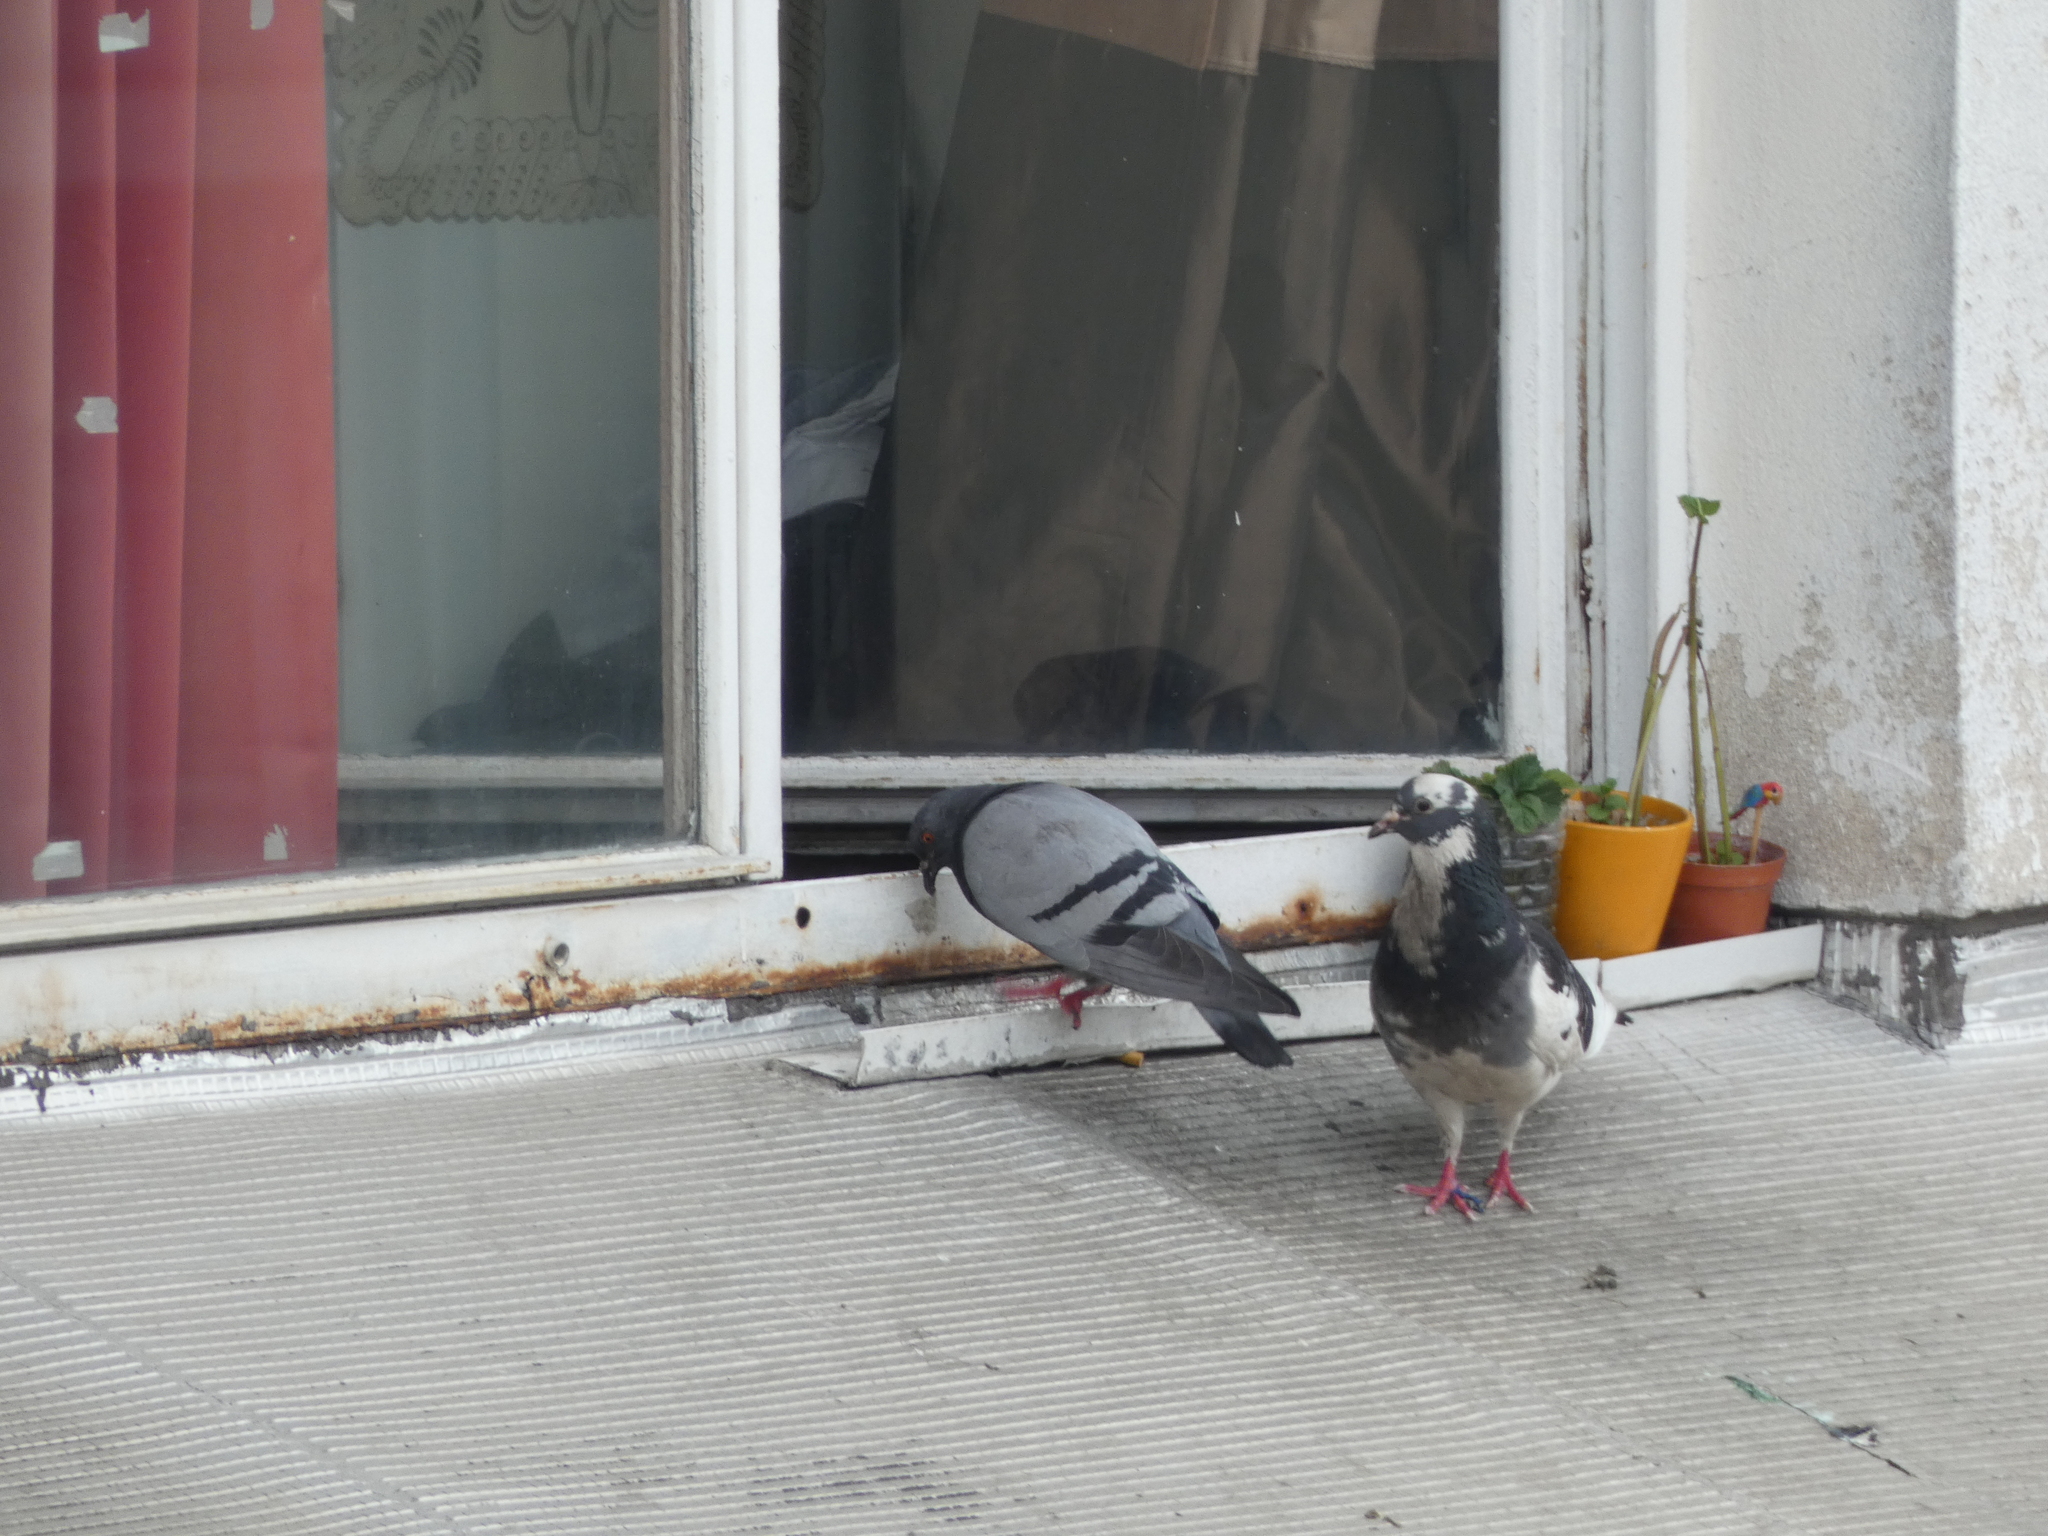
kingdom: Animalia
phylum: Chordata
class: Aves
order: Columbiformes
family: Columbidae
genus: Columba
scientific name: Columba livia
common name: Rock pigeon
